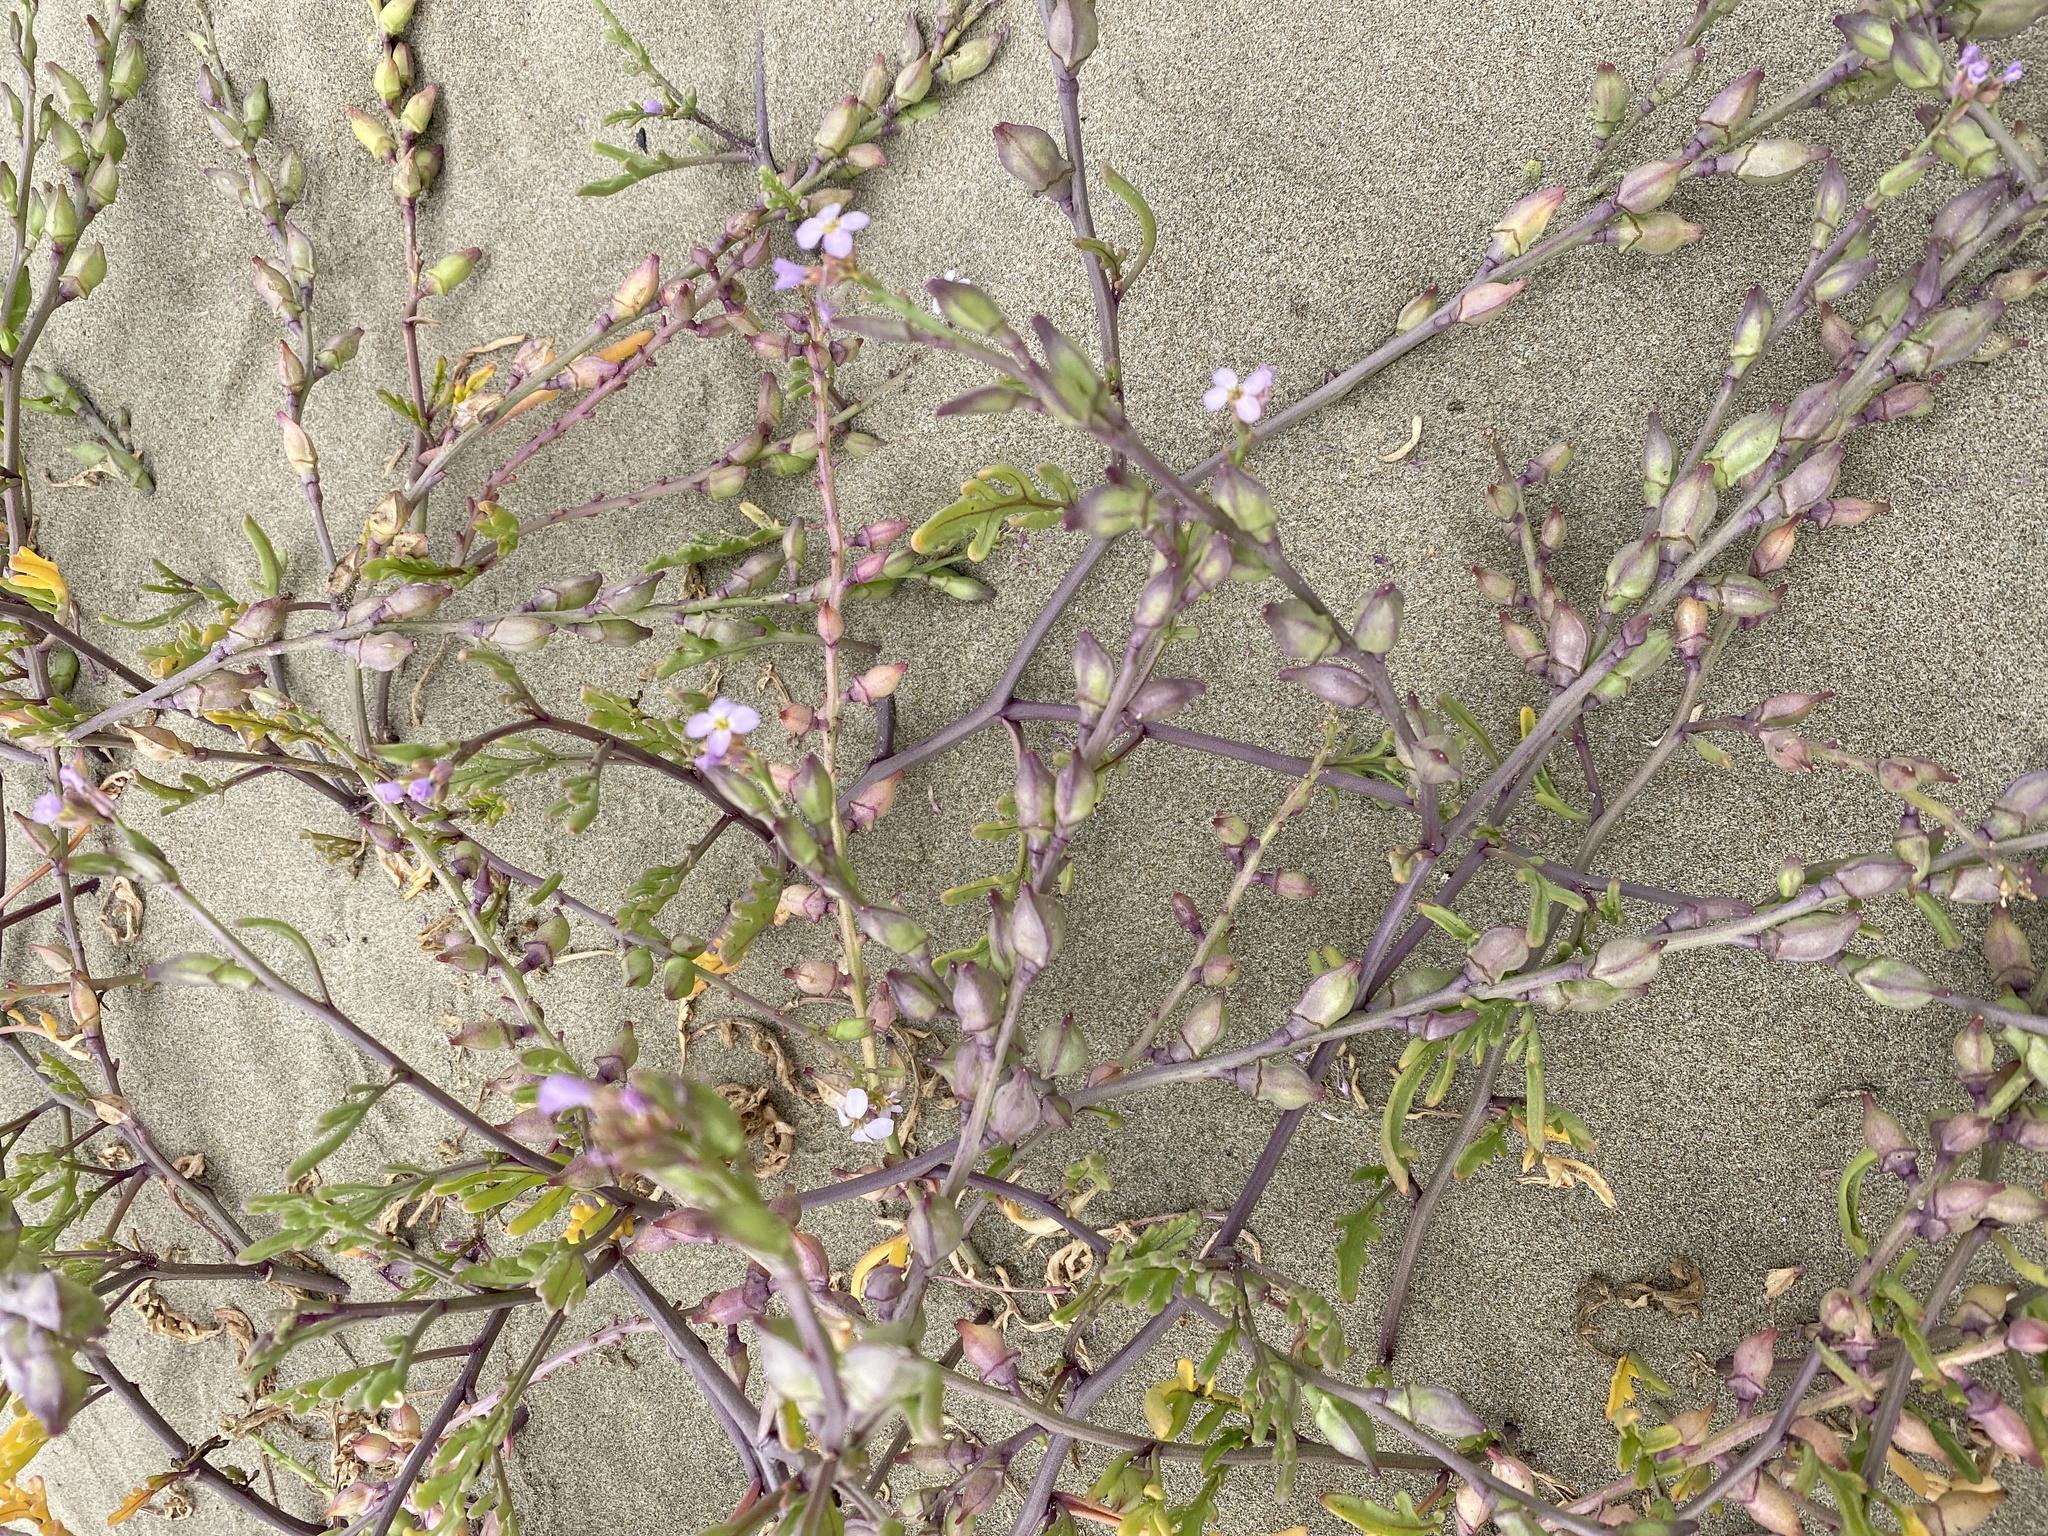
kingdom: Plantae
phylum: Tracheophyta
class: Magnoliopsida
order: Brassicales
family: Brassicaceae
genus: Cakile
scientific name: Cakile maritima
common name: Sea rocket
